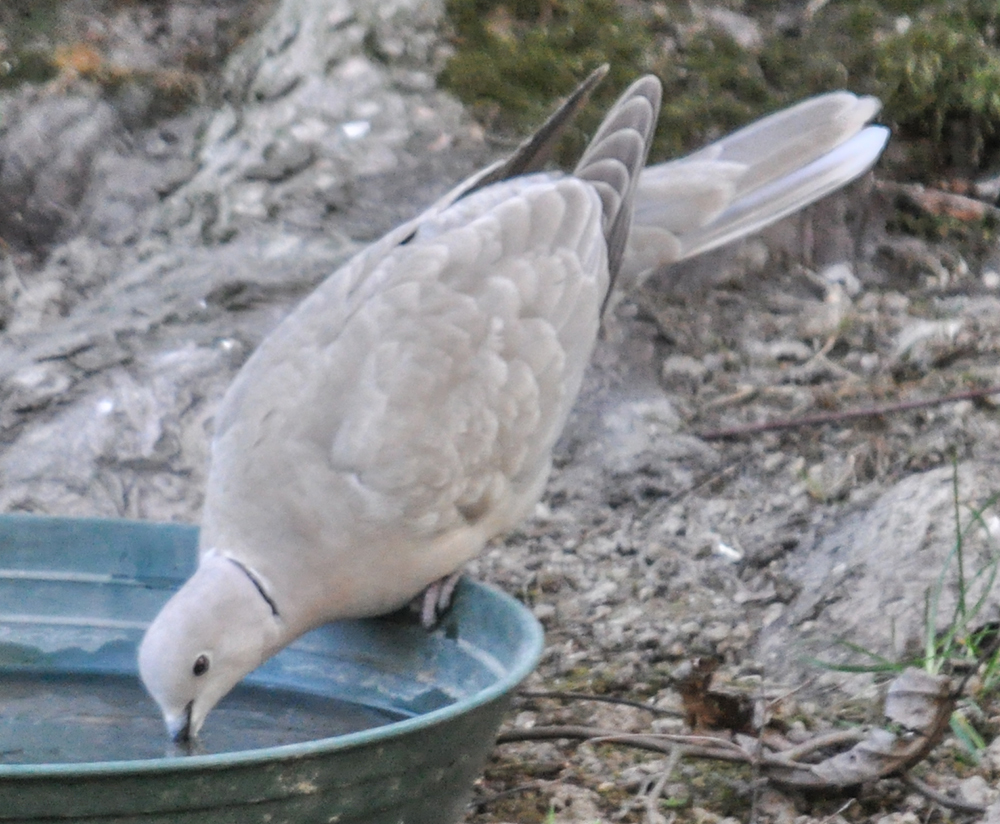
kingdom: Animalia
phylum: Chordata
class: Aves
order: Columbiformes
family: Columbidae
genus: Streptopelia
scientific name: Streptopelia decaocto
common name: Eurasian collared dove
